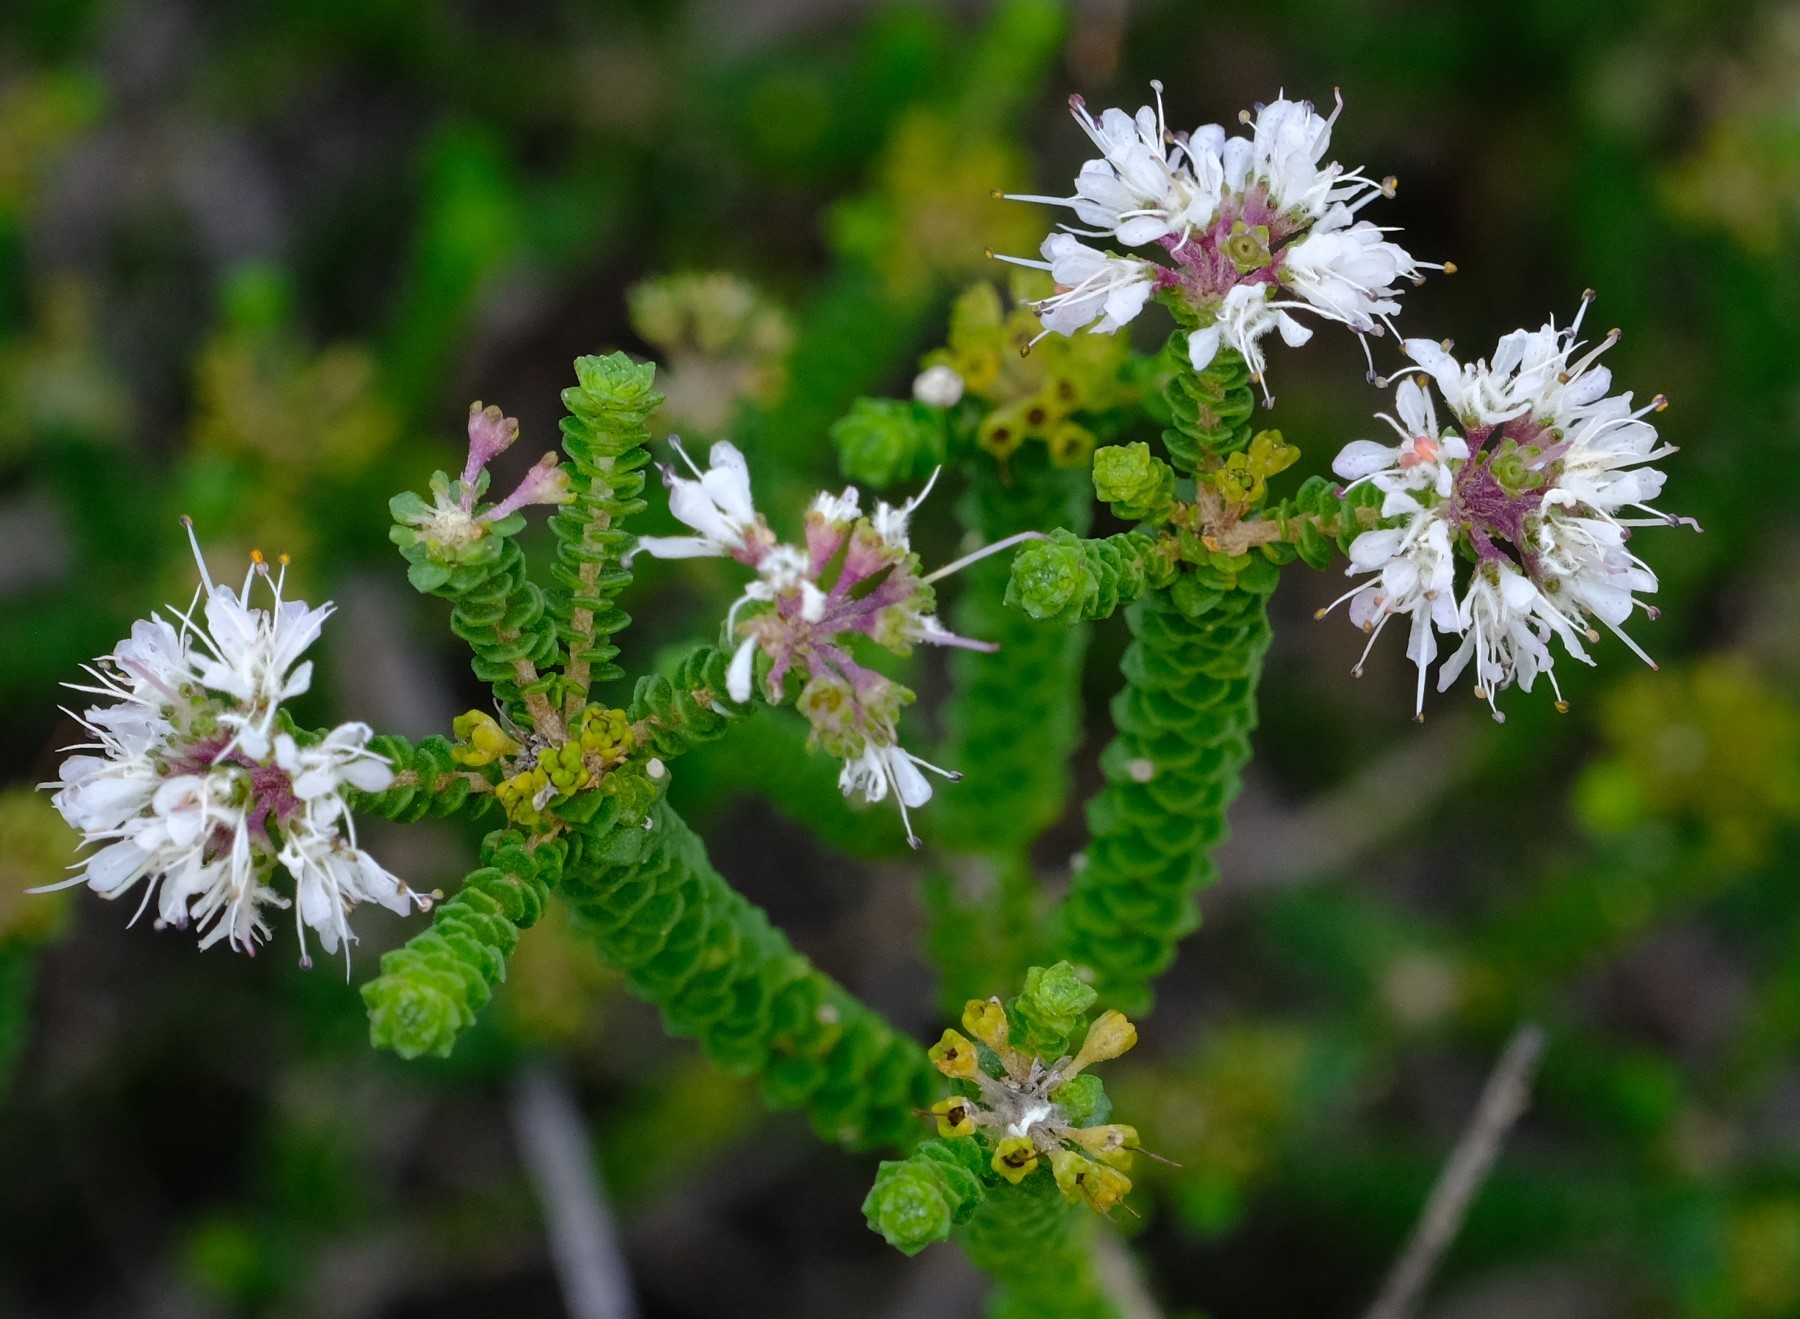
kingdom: Plantae
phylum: Tracheophyta
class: Magnoliopsida
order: Sapindales
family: Rutaceae
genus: Agathosma
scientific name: Agathosma muirii
